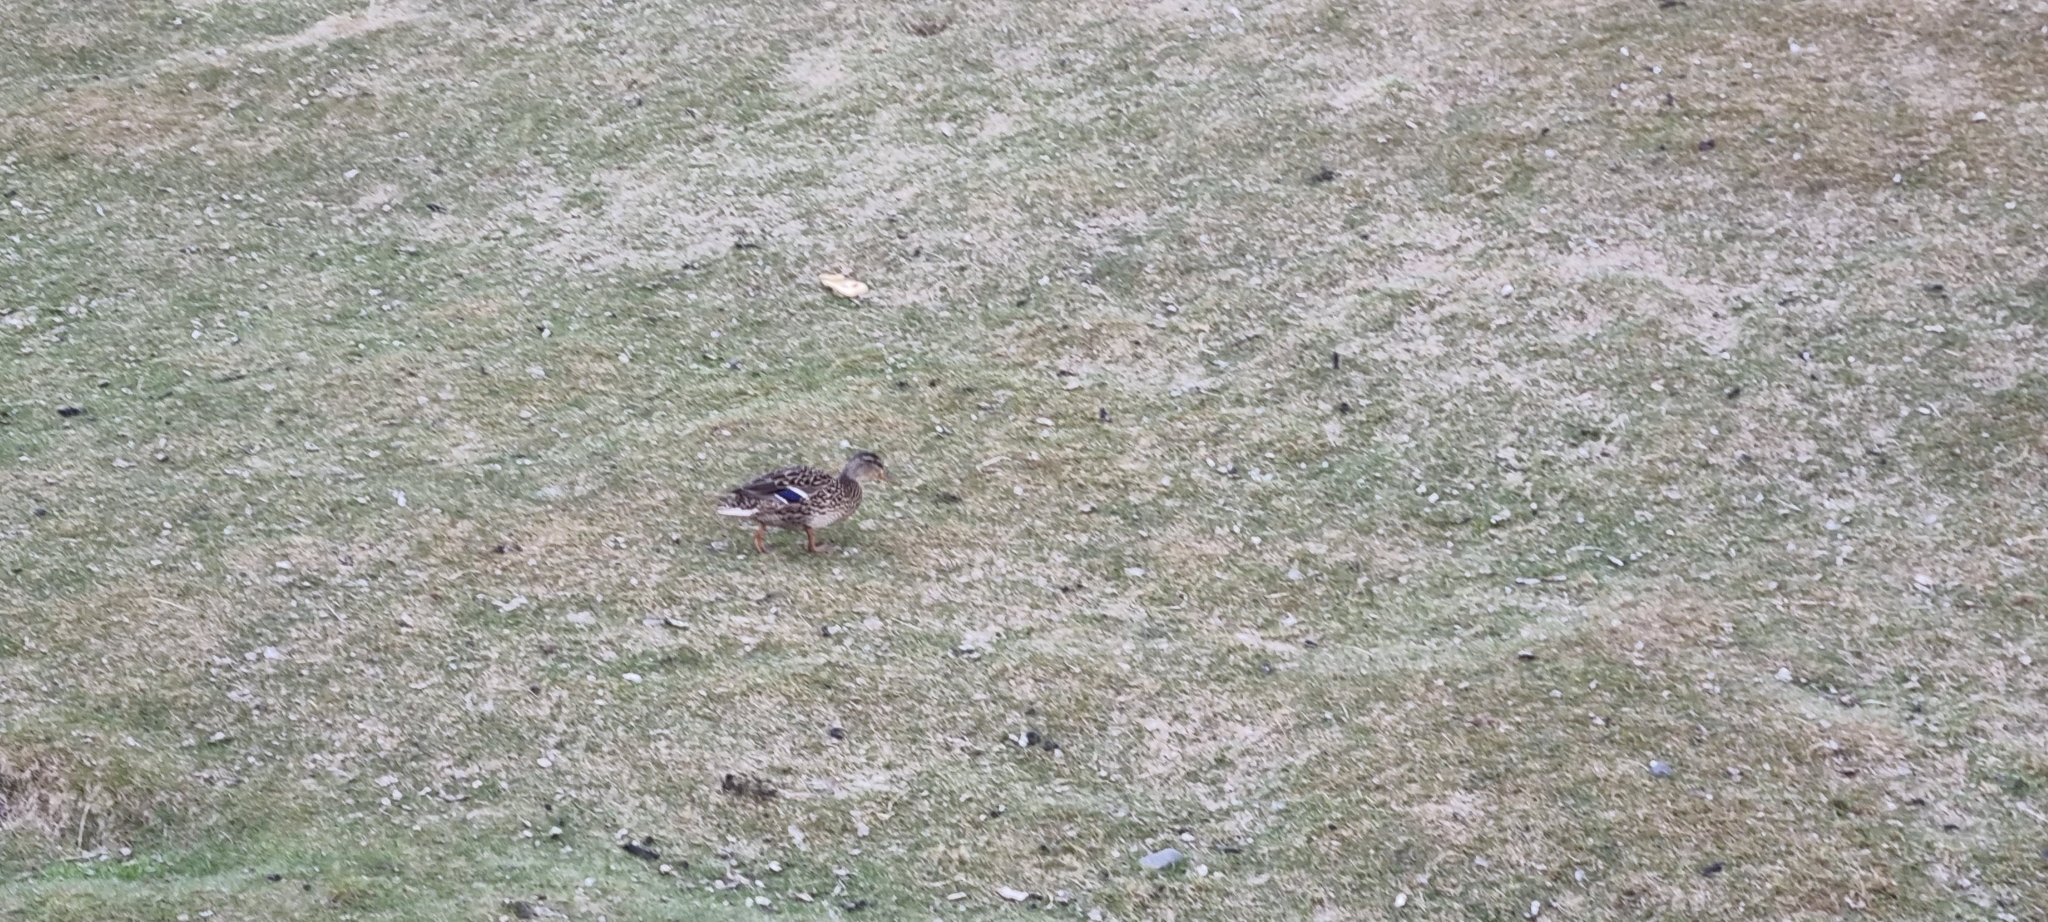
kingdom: Animalia
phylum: Chordata
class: Aves
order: Anseriformes
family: Anatidae
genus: Anas
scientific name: Anas platyrhynchos
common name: Mallard
